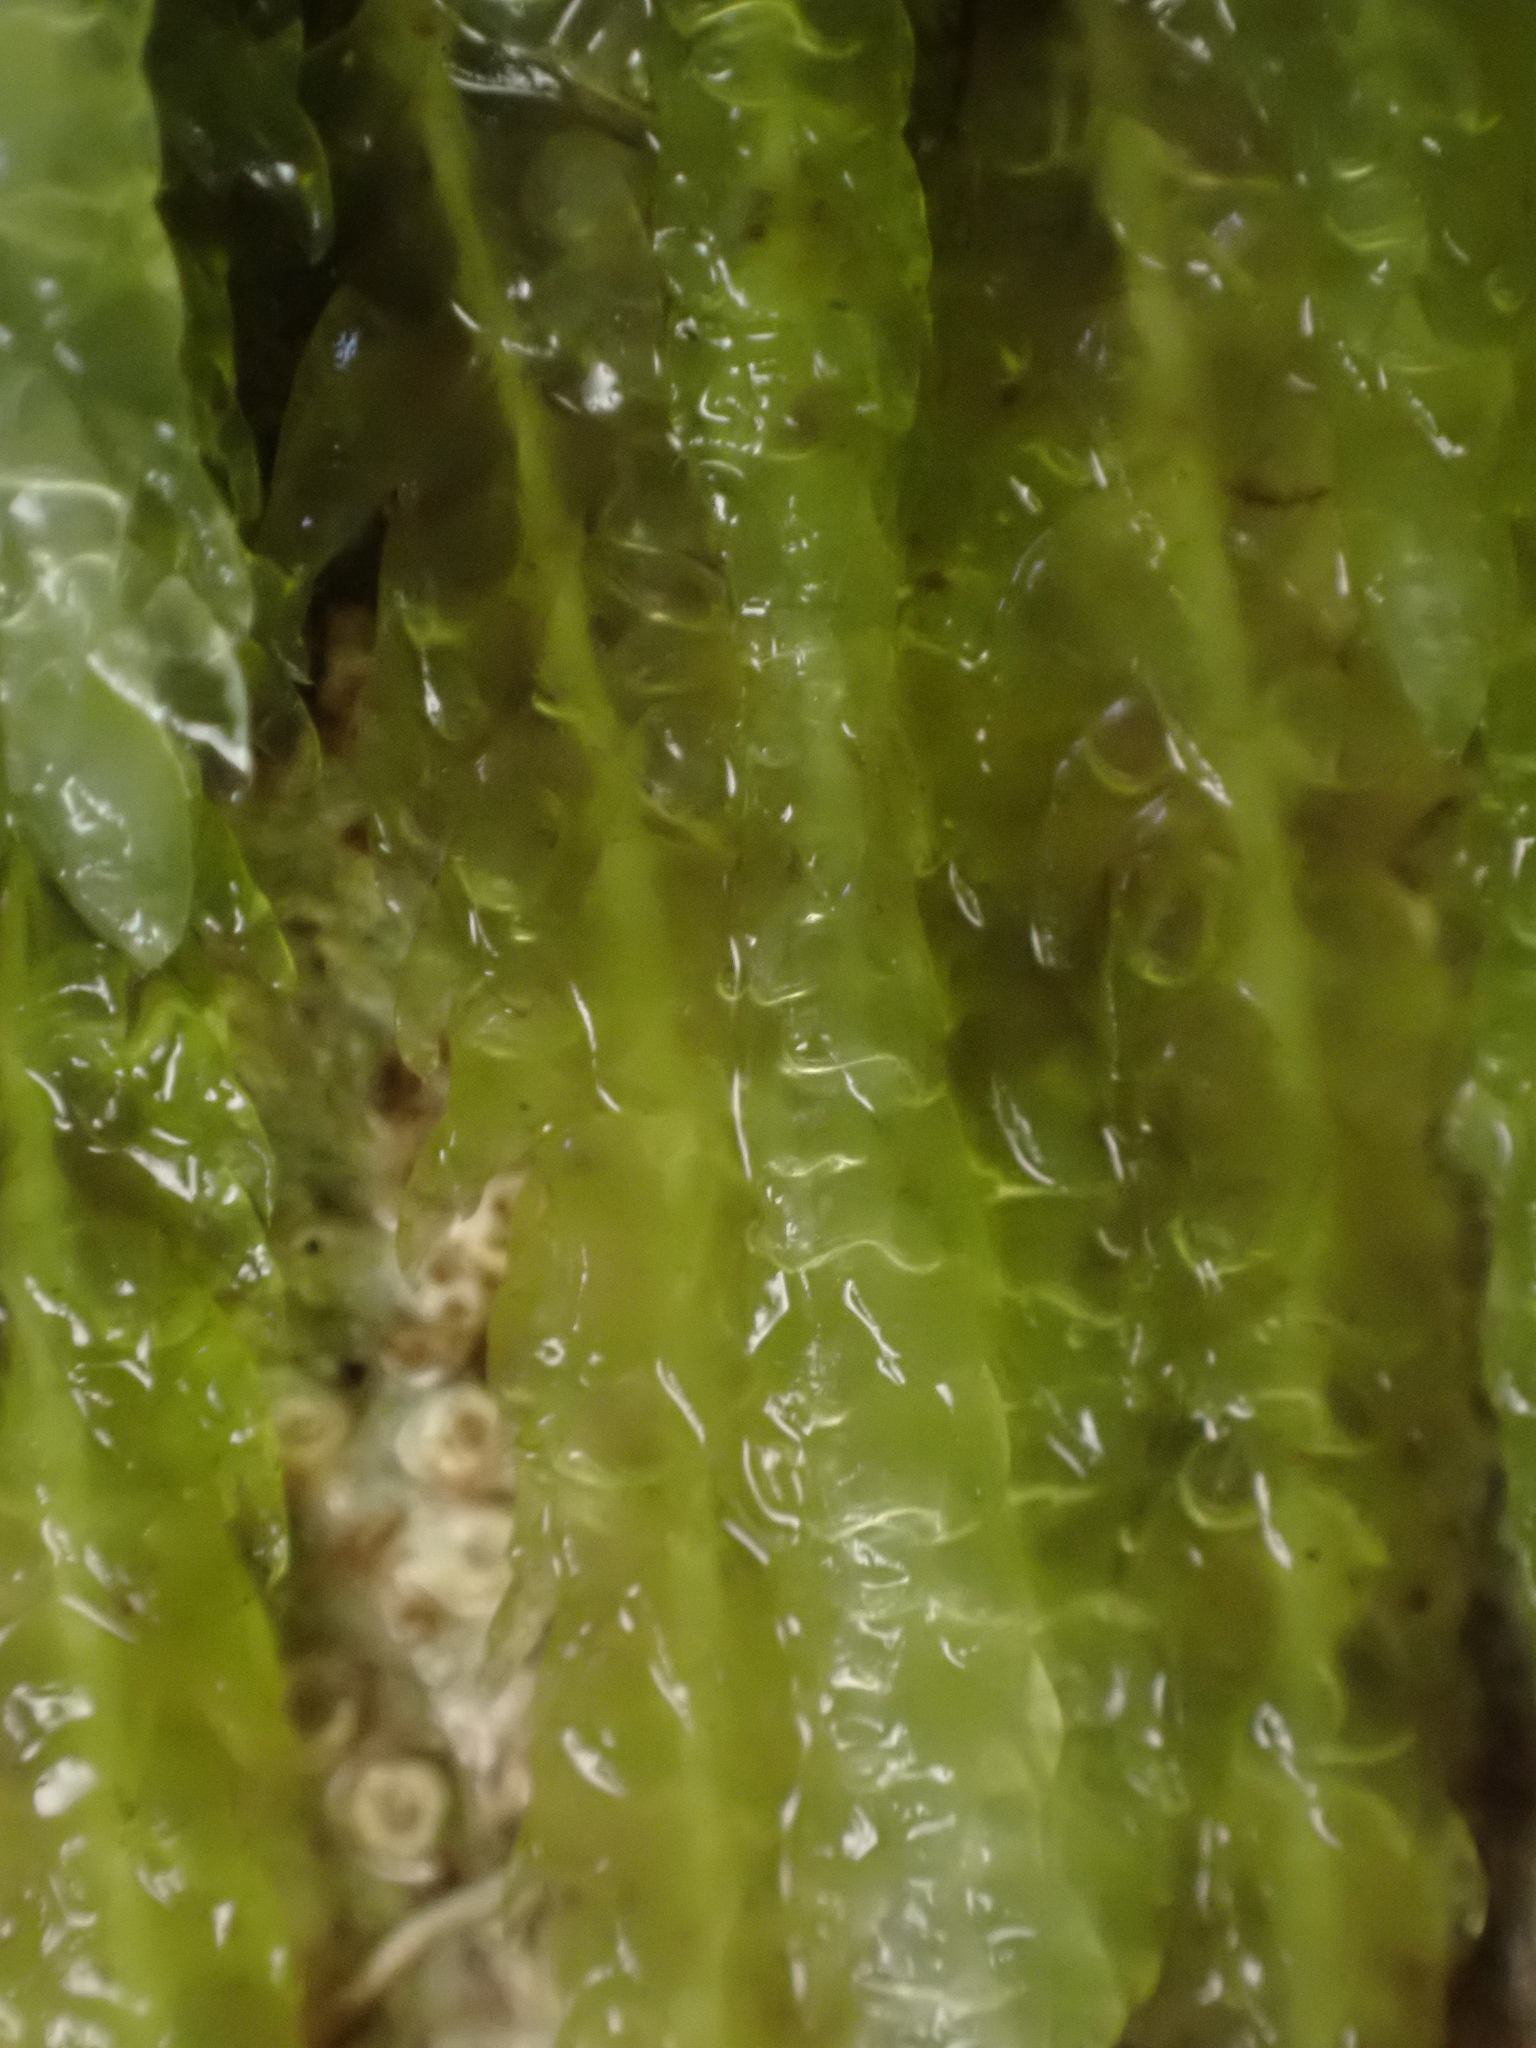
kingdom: Plantae
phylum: Bryophyta
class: Bryopsida
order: Hypnales
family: Plagiotheciaceae
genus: Plagiothecium
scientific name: Plagiothecium undulatum
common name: Waved silk-moss
